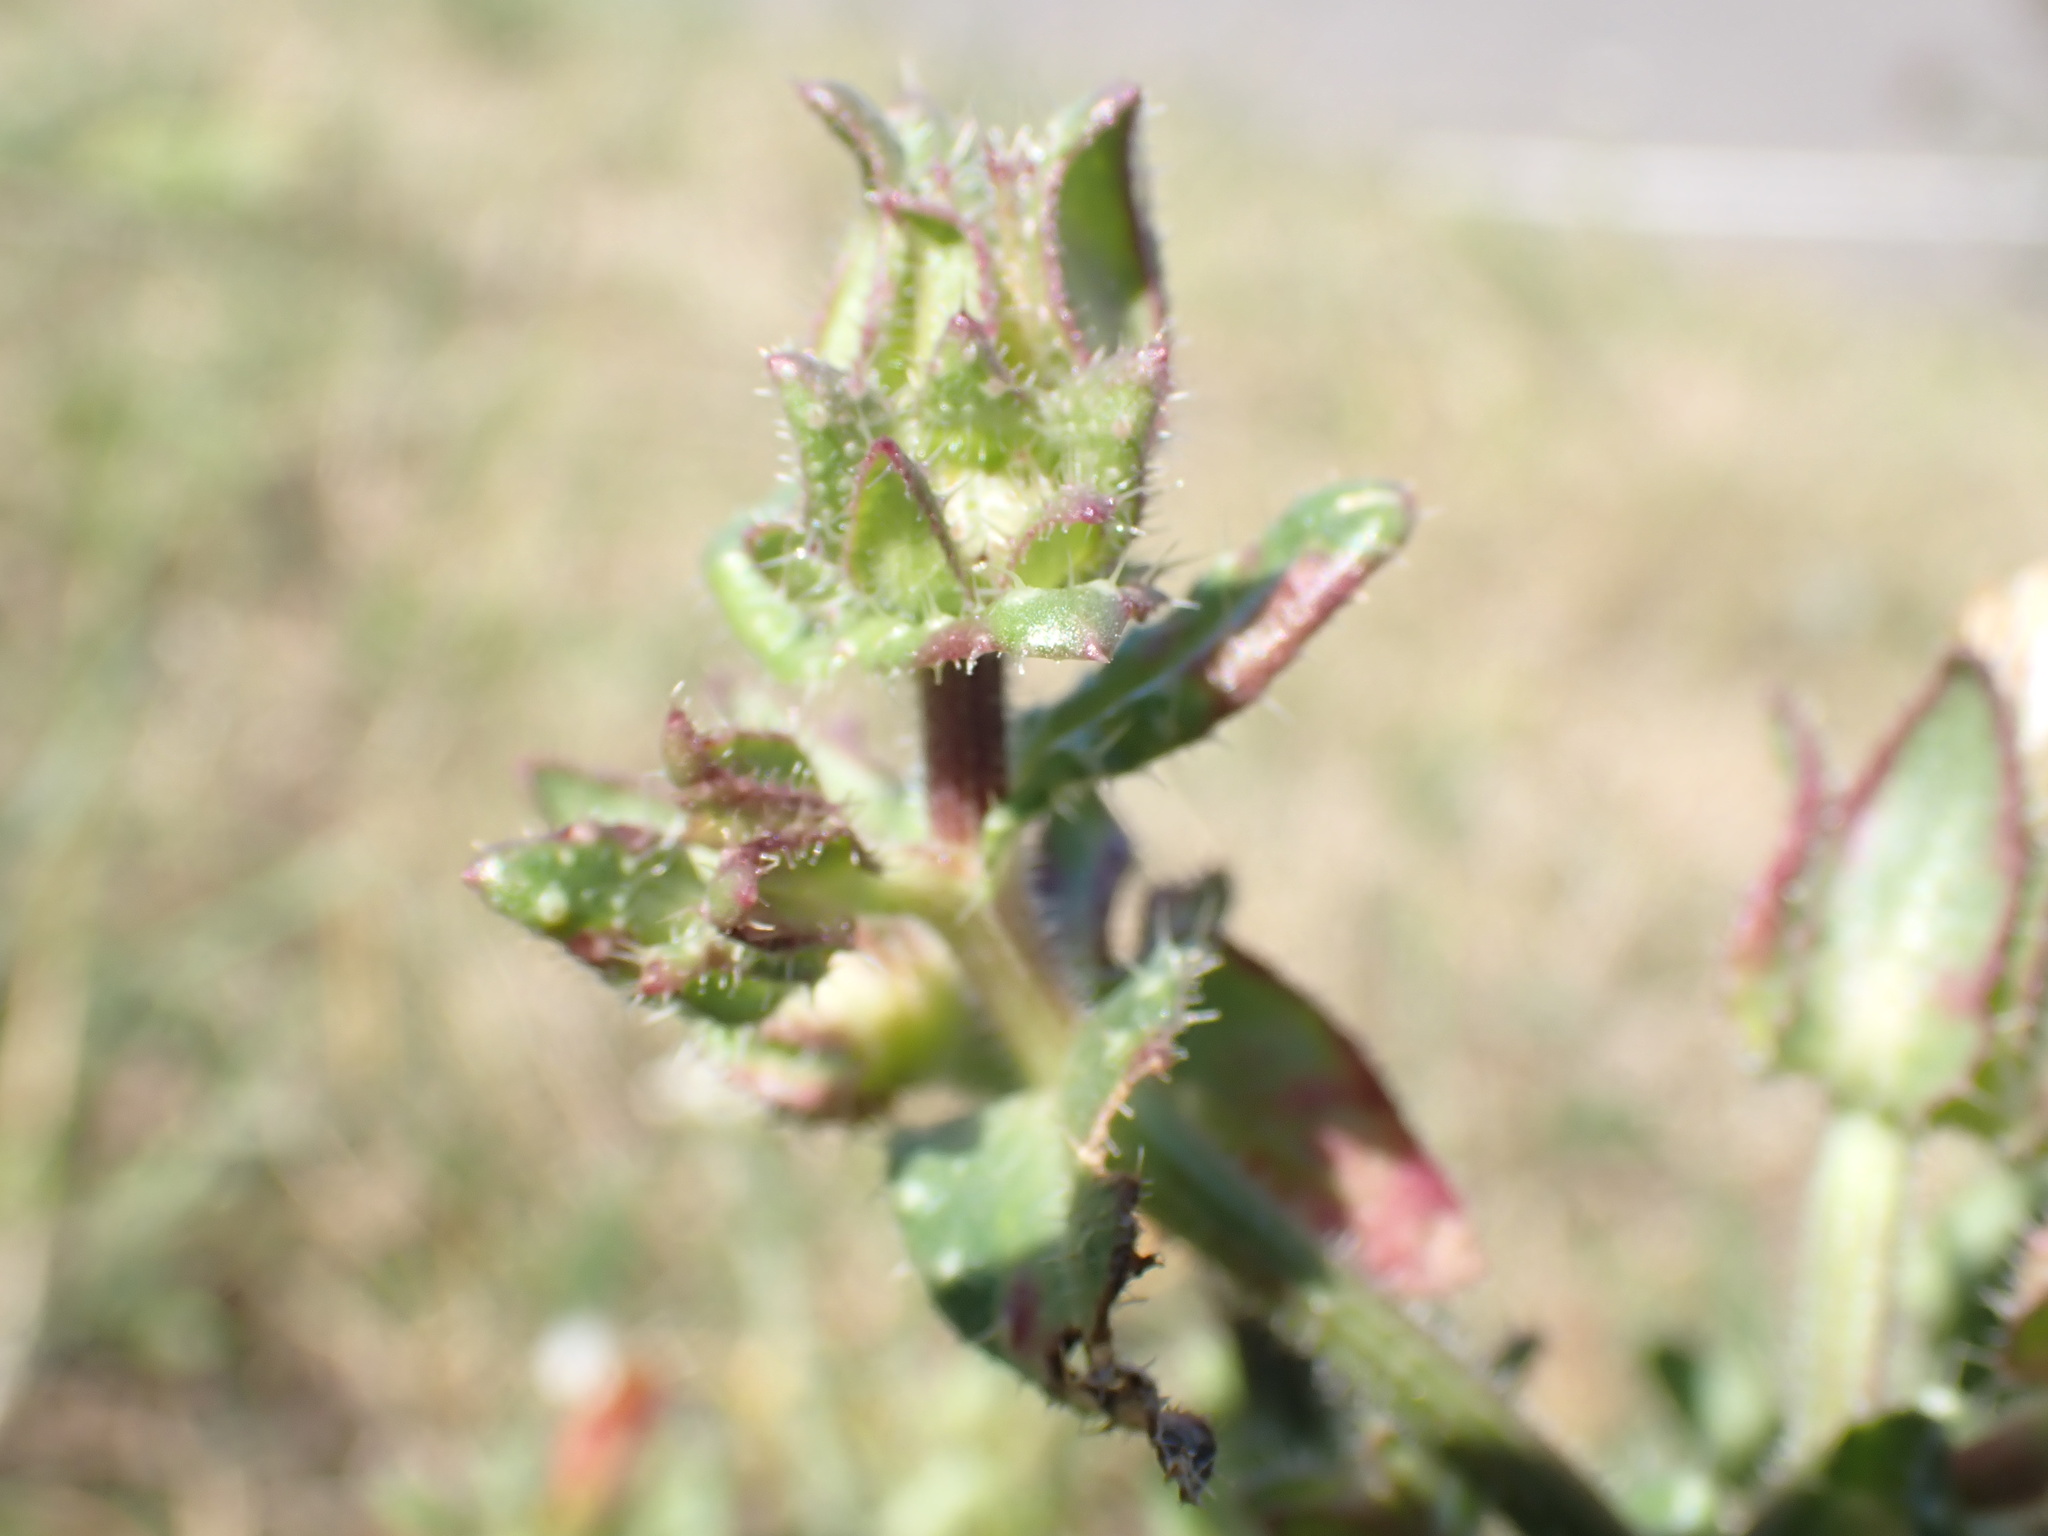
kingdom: Plantae
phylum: Tracheophyta
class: Magnoliopsida
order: Asterales
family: Asteraceae
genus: Helminthotheca
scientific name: Helminthotheca echioides
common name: Ox-tongue
